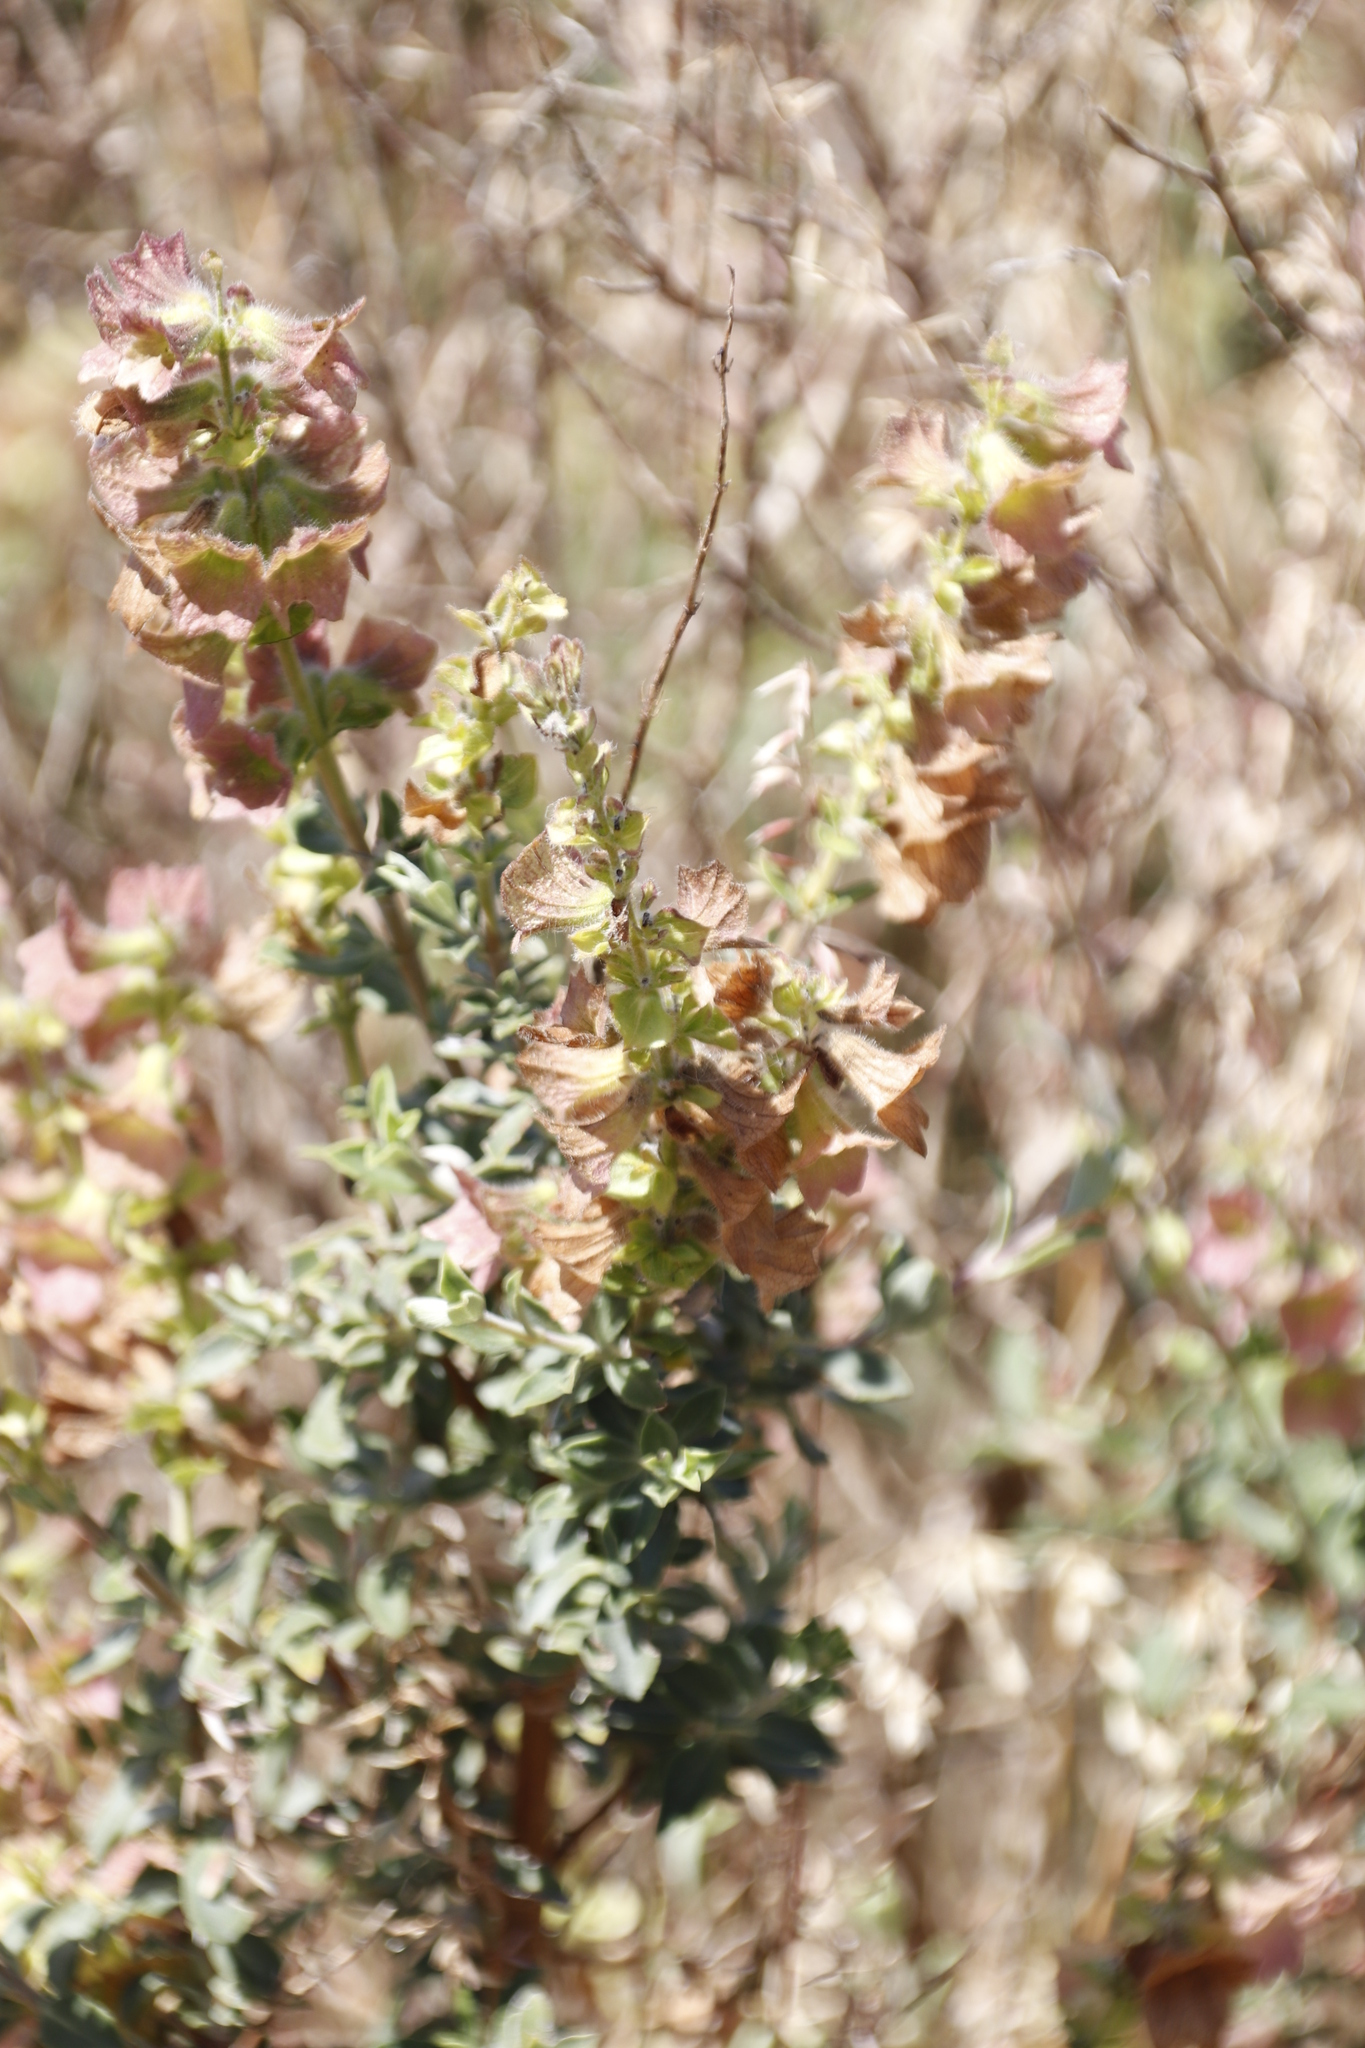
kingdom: Plantae
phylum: Tracheophyta
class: Magnoliopsida
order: Lamiales
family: Lamiaceae
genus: Salvia
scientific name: Salvia africana
